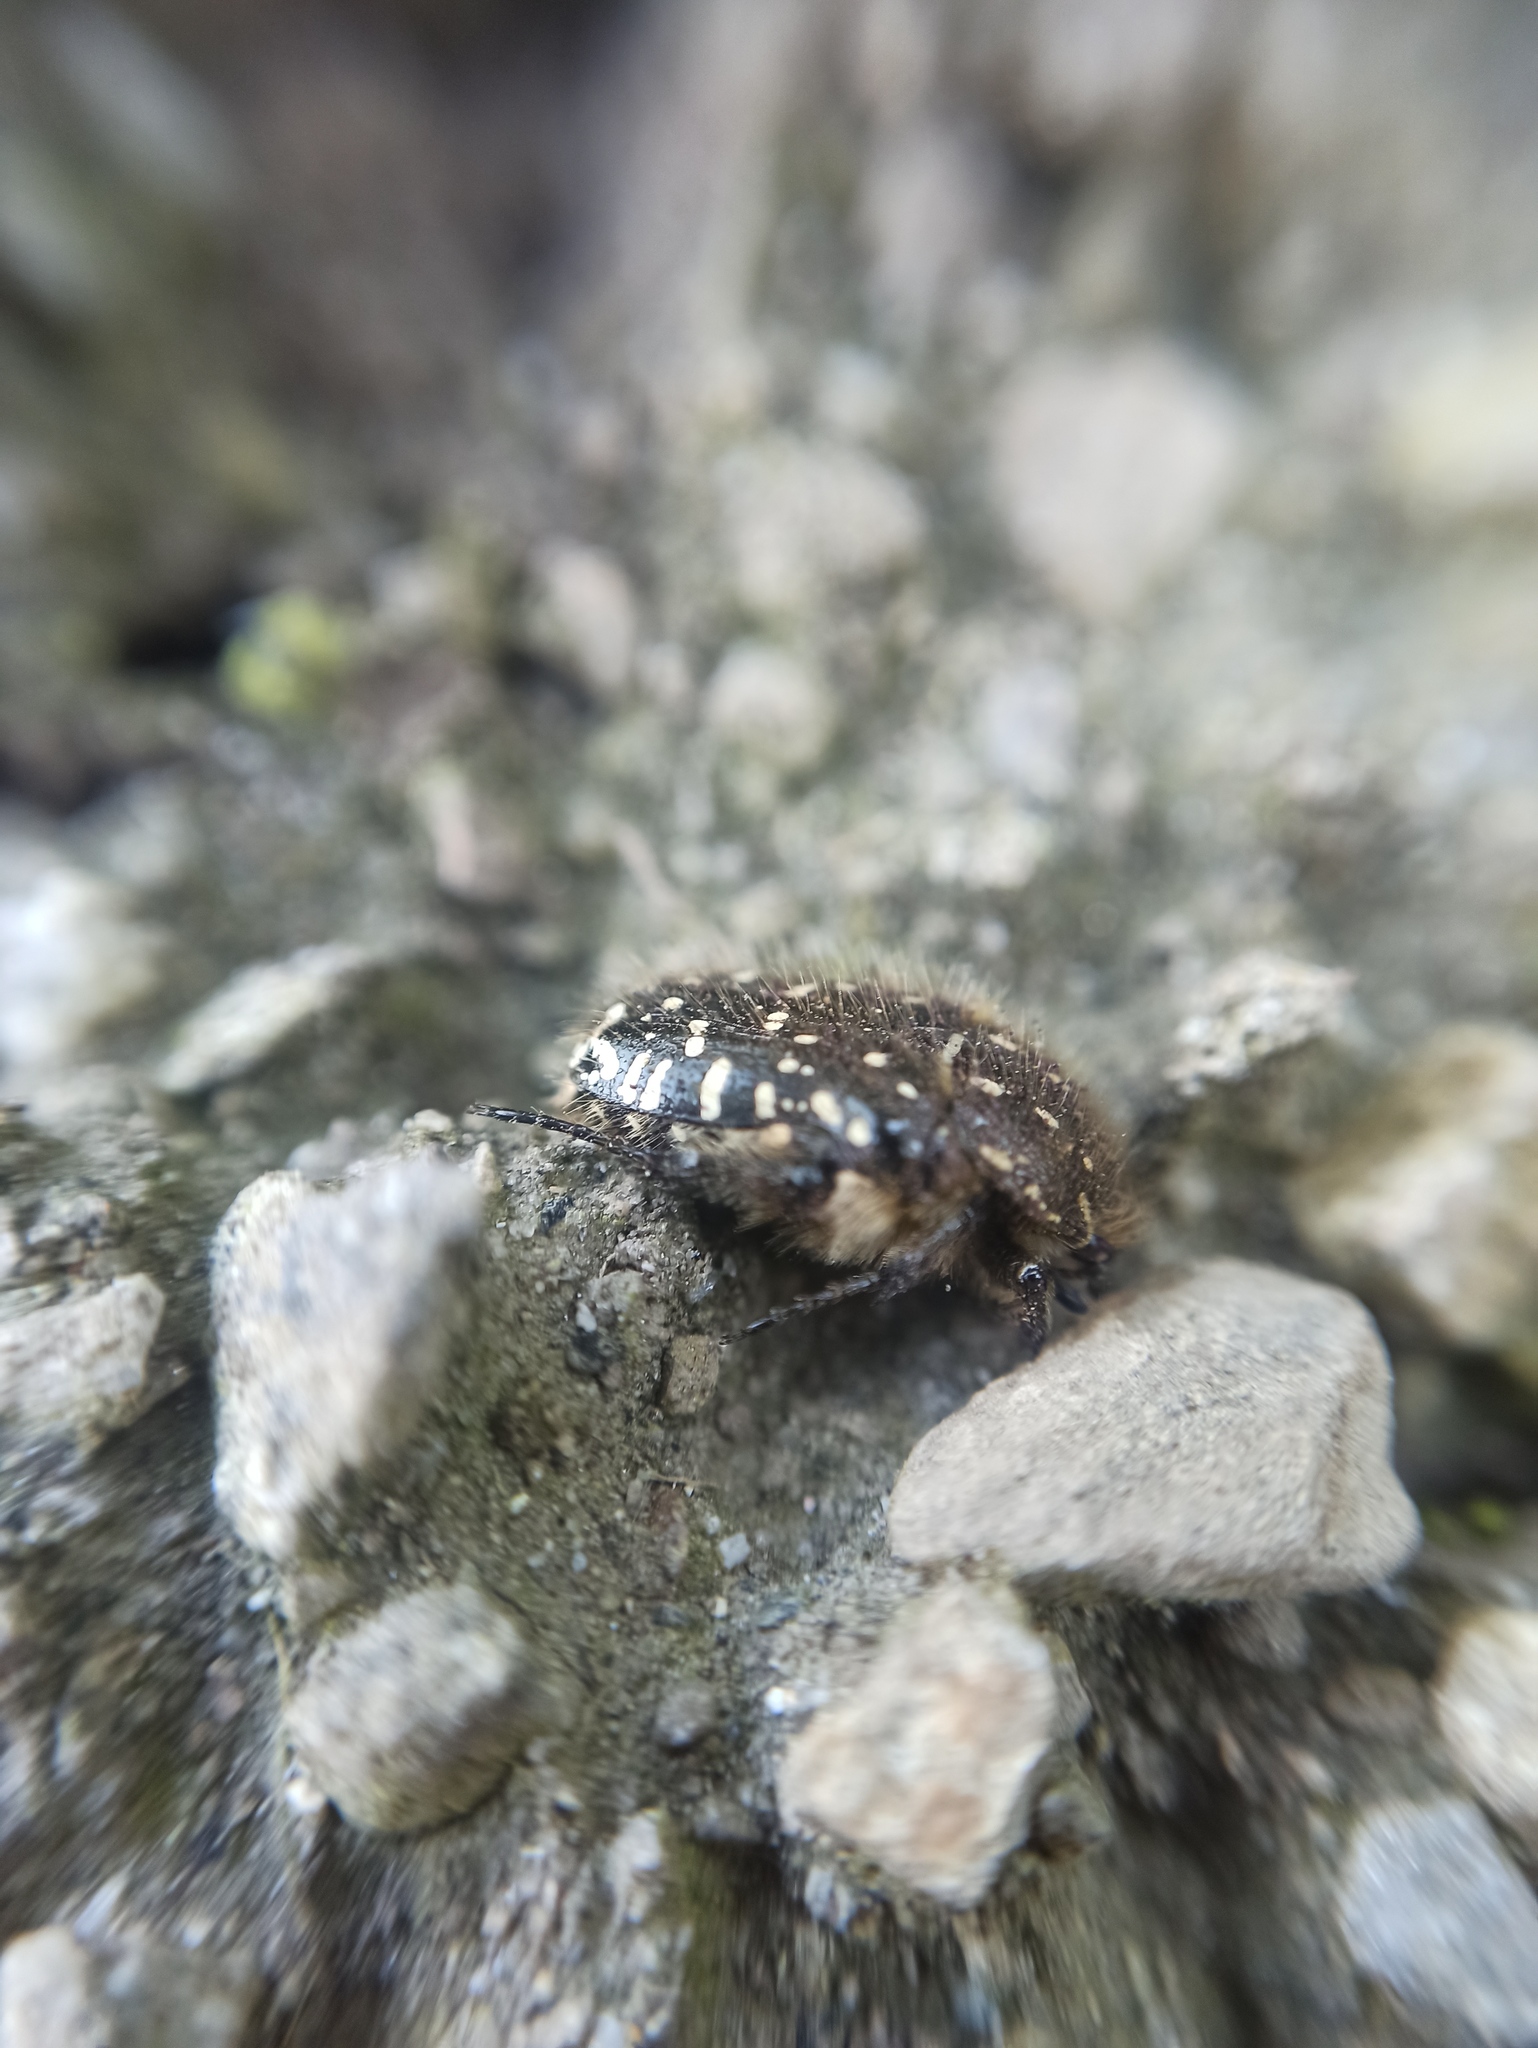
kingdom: Animalia
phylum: Arthropoda
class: Insecta
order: Coleoptera
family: Scarabaeidae
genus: Oxythyrea
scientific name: Oxythyrea funesta
